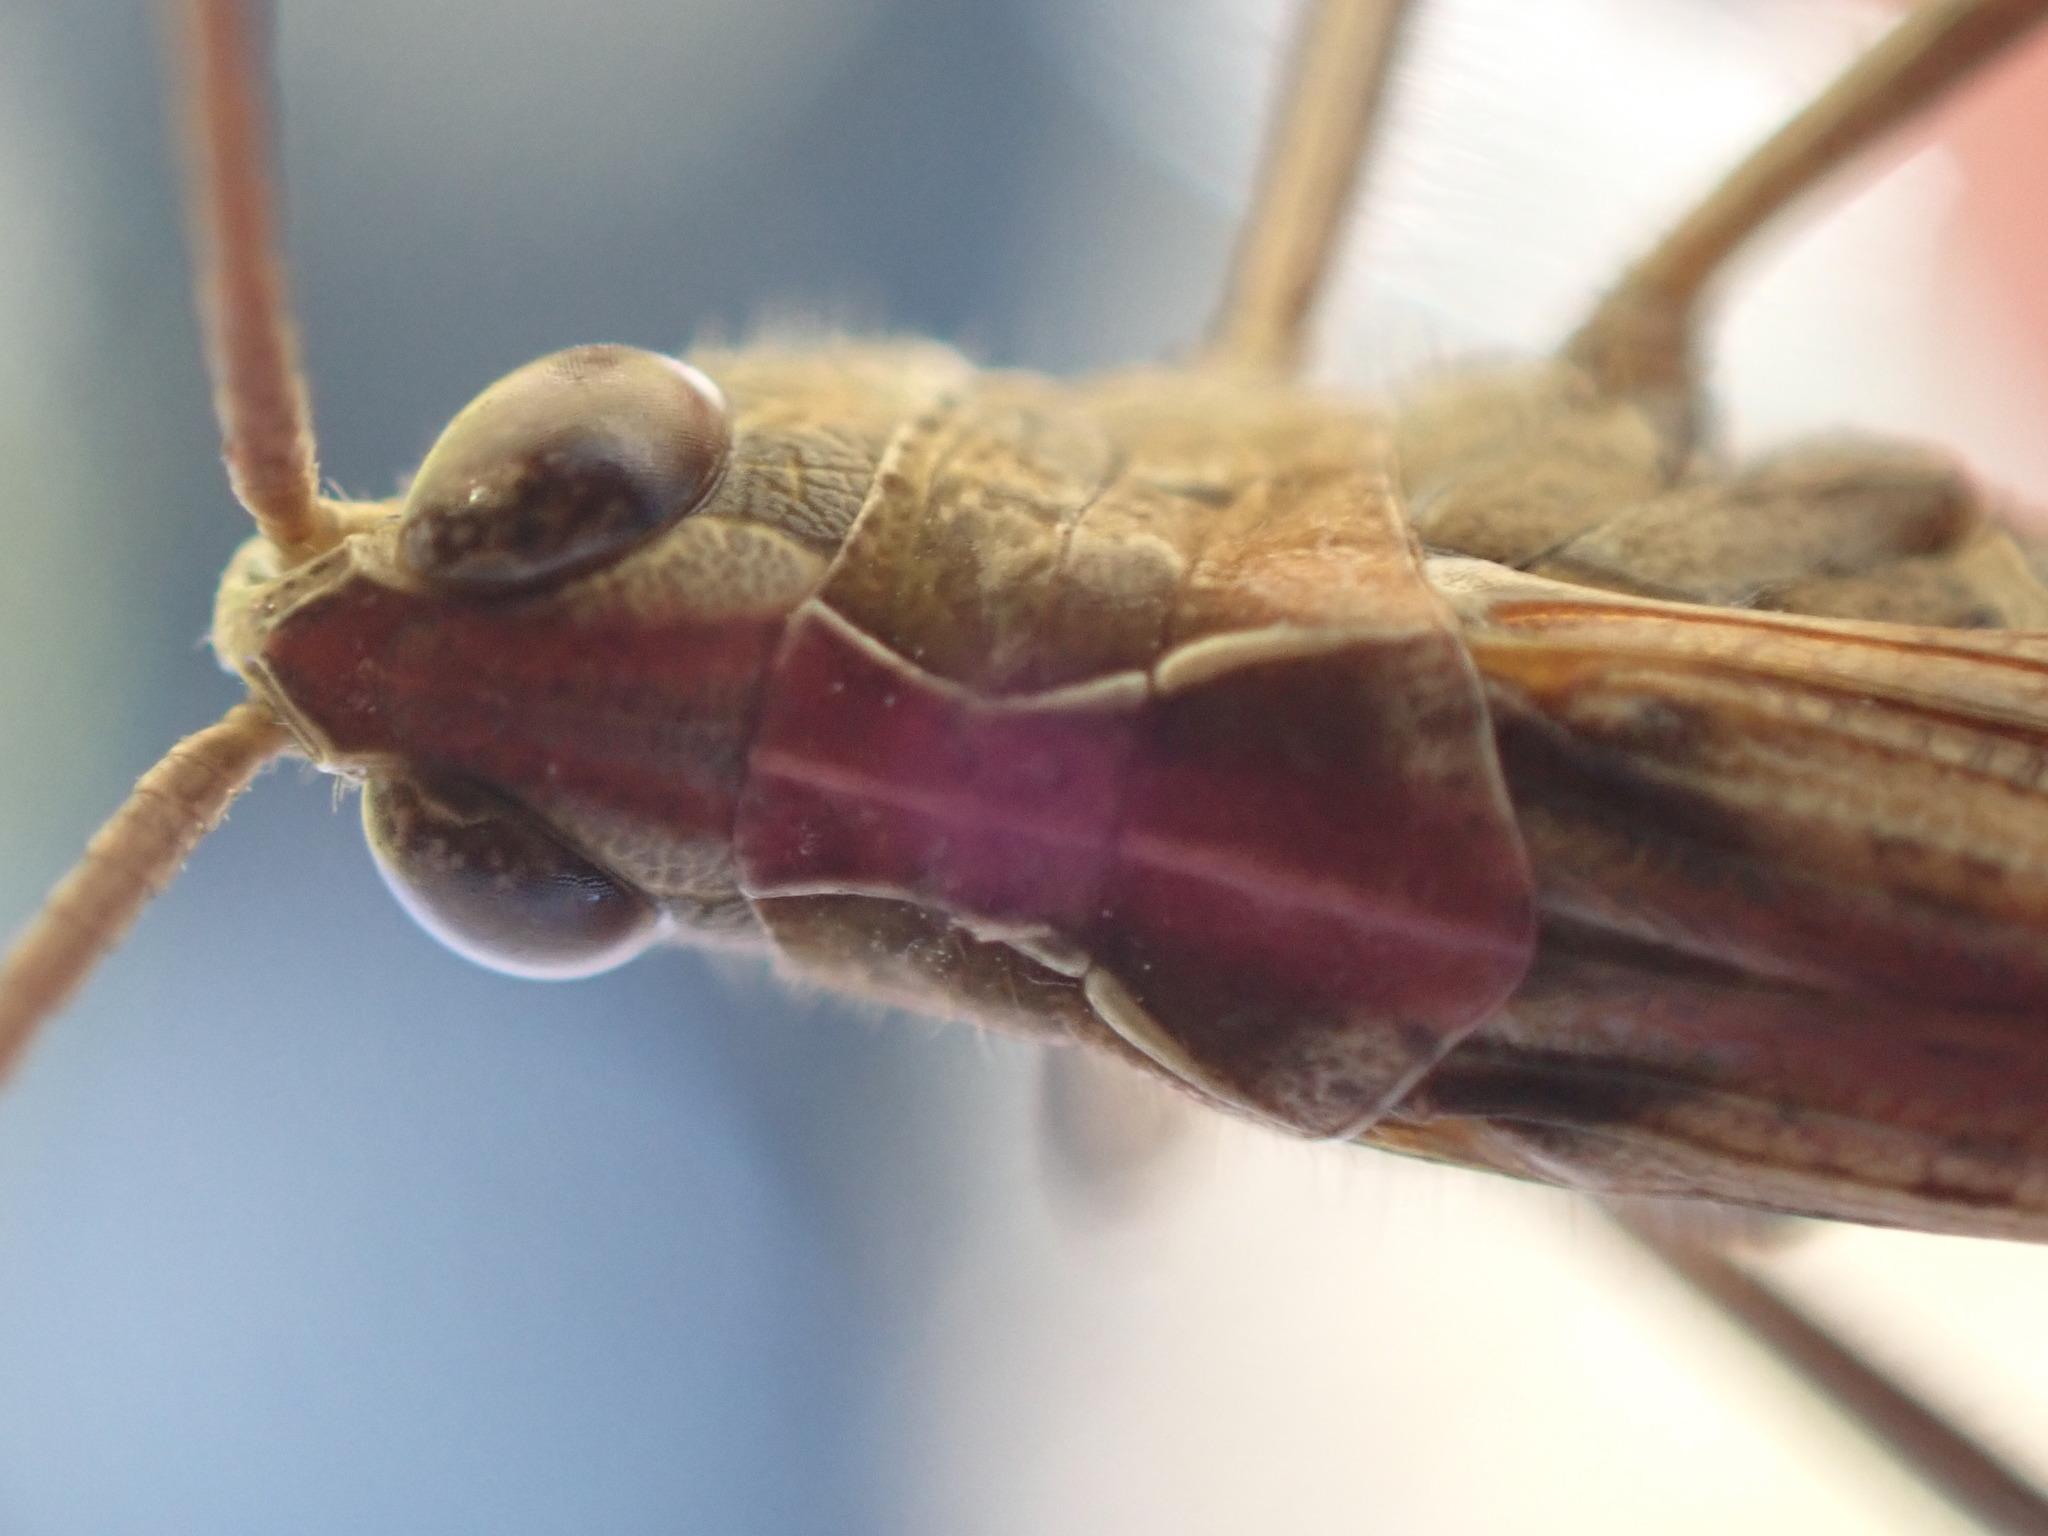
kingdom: Animalia
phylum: Arthropoda
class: Insecta
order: Orthoptera
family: Acrididae
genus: Chorthippus
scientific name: Chorthippus biguttulus
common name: Bow-winged grasshopper
